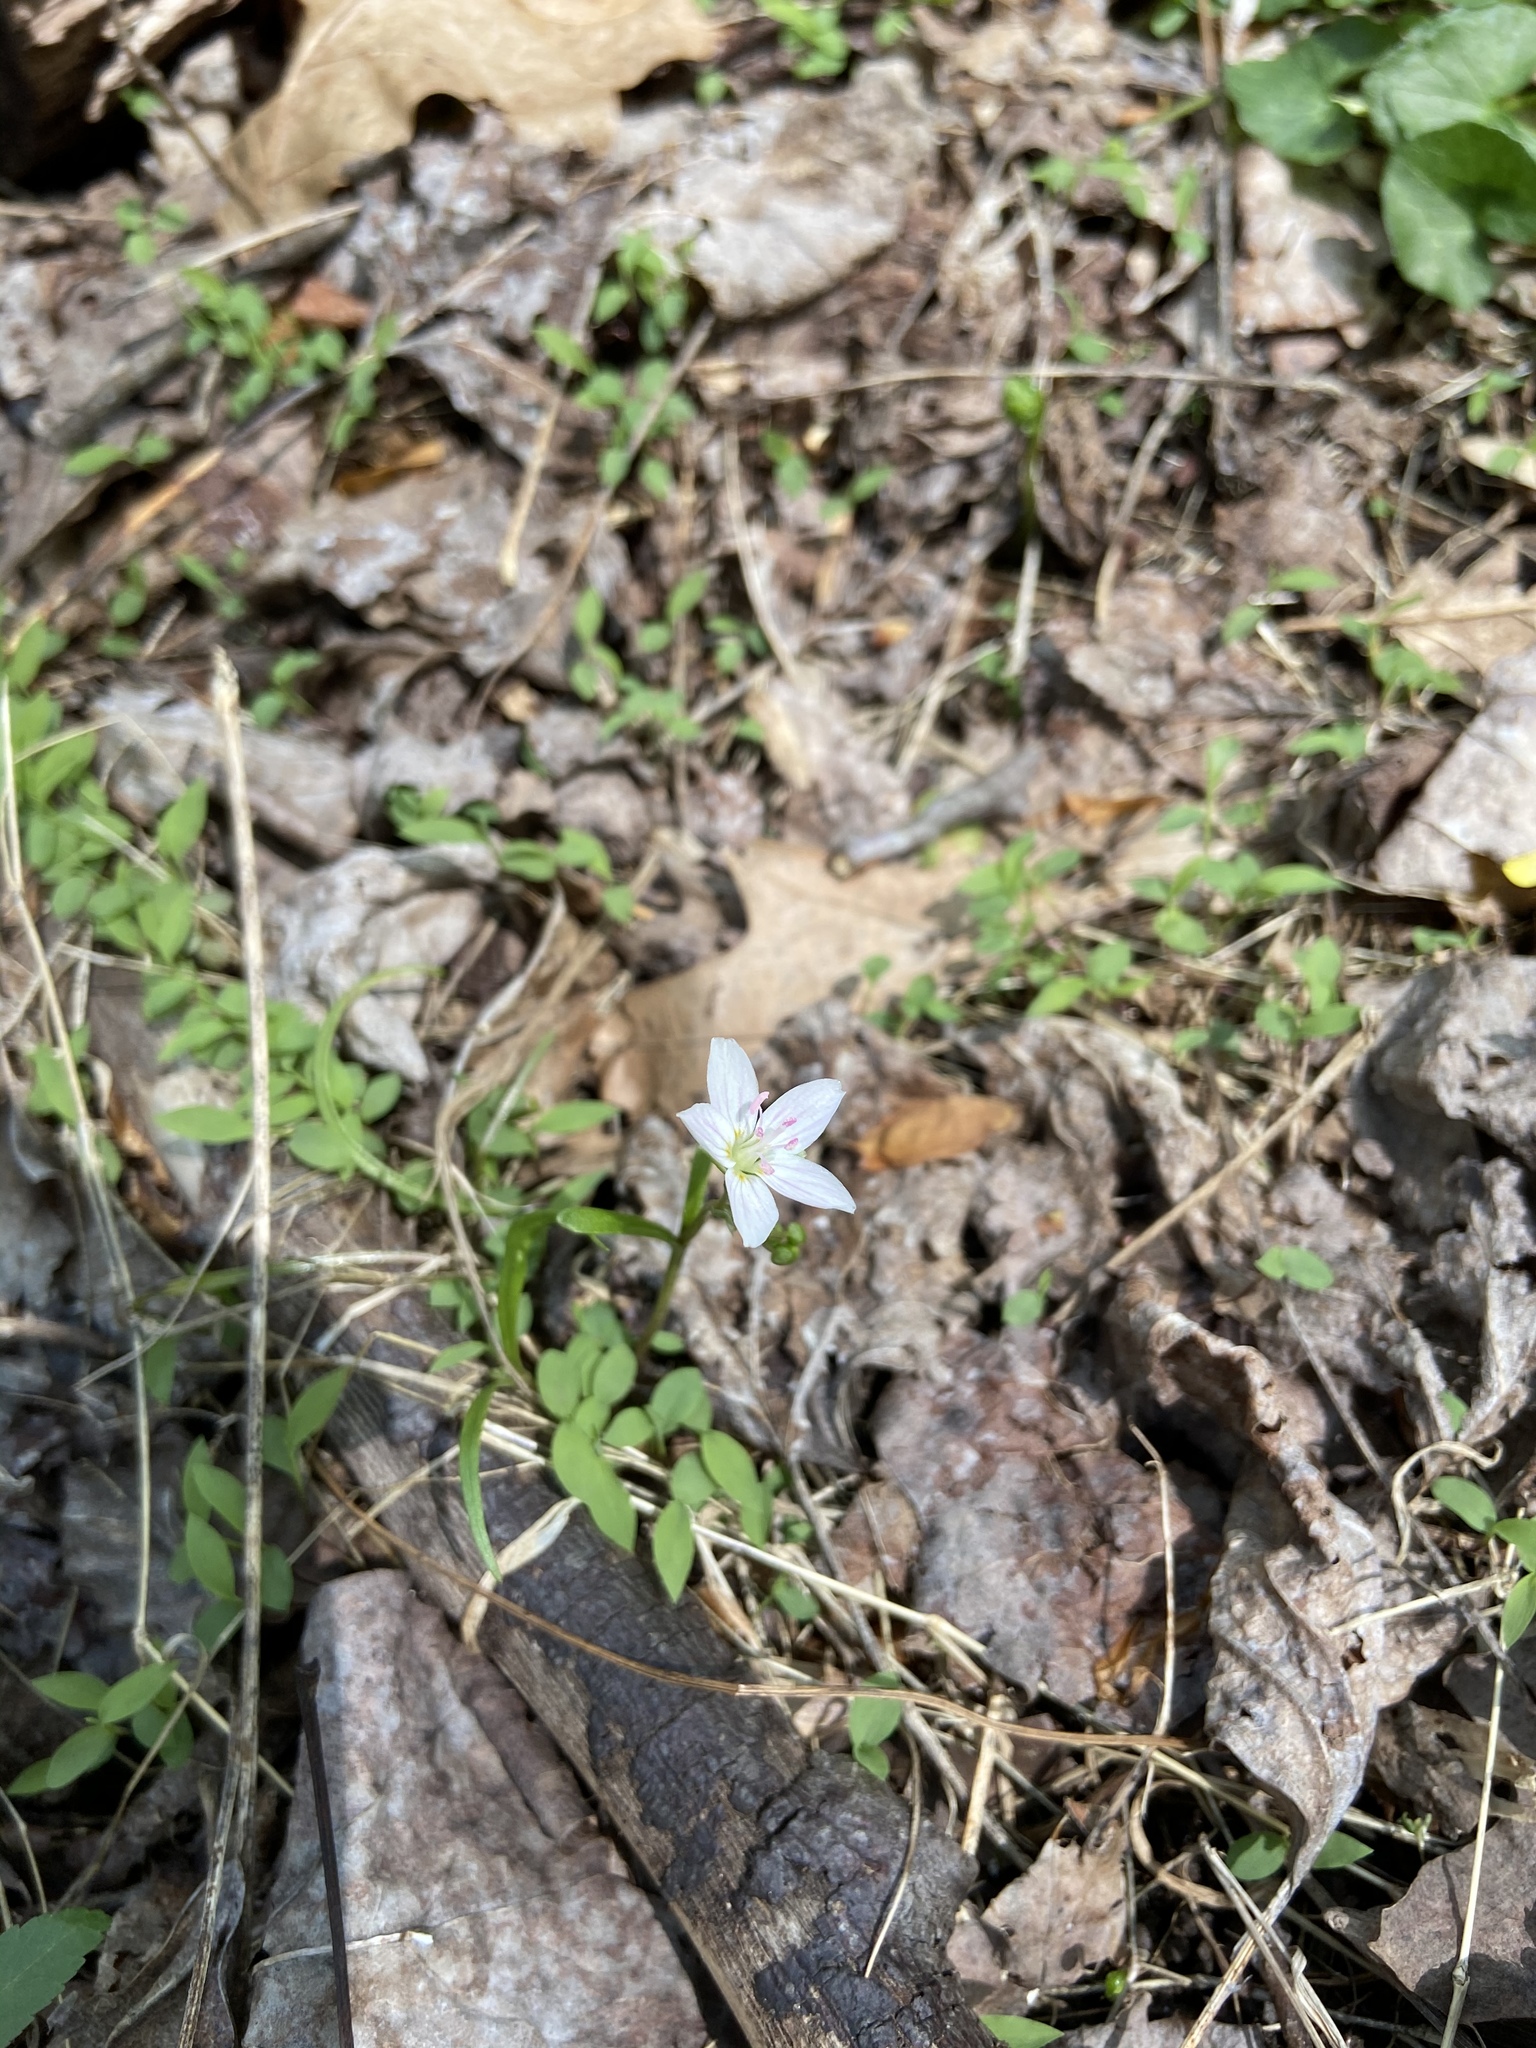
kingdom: Plantae
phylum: Tracheophyta
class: Magnoliopsida
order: Caryophyllales
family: Montiaceae
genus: Claytonia
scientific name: Claytonia virginica
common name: Virginia springbeauty
